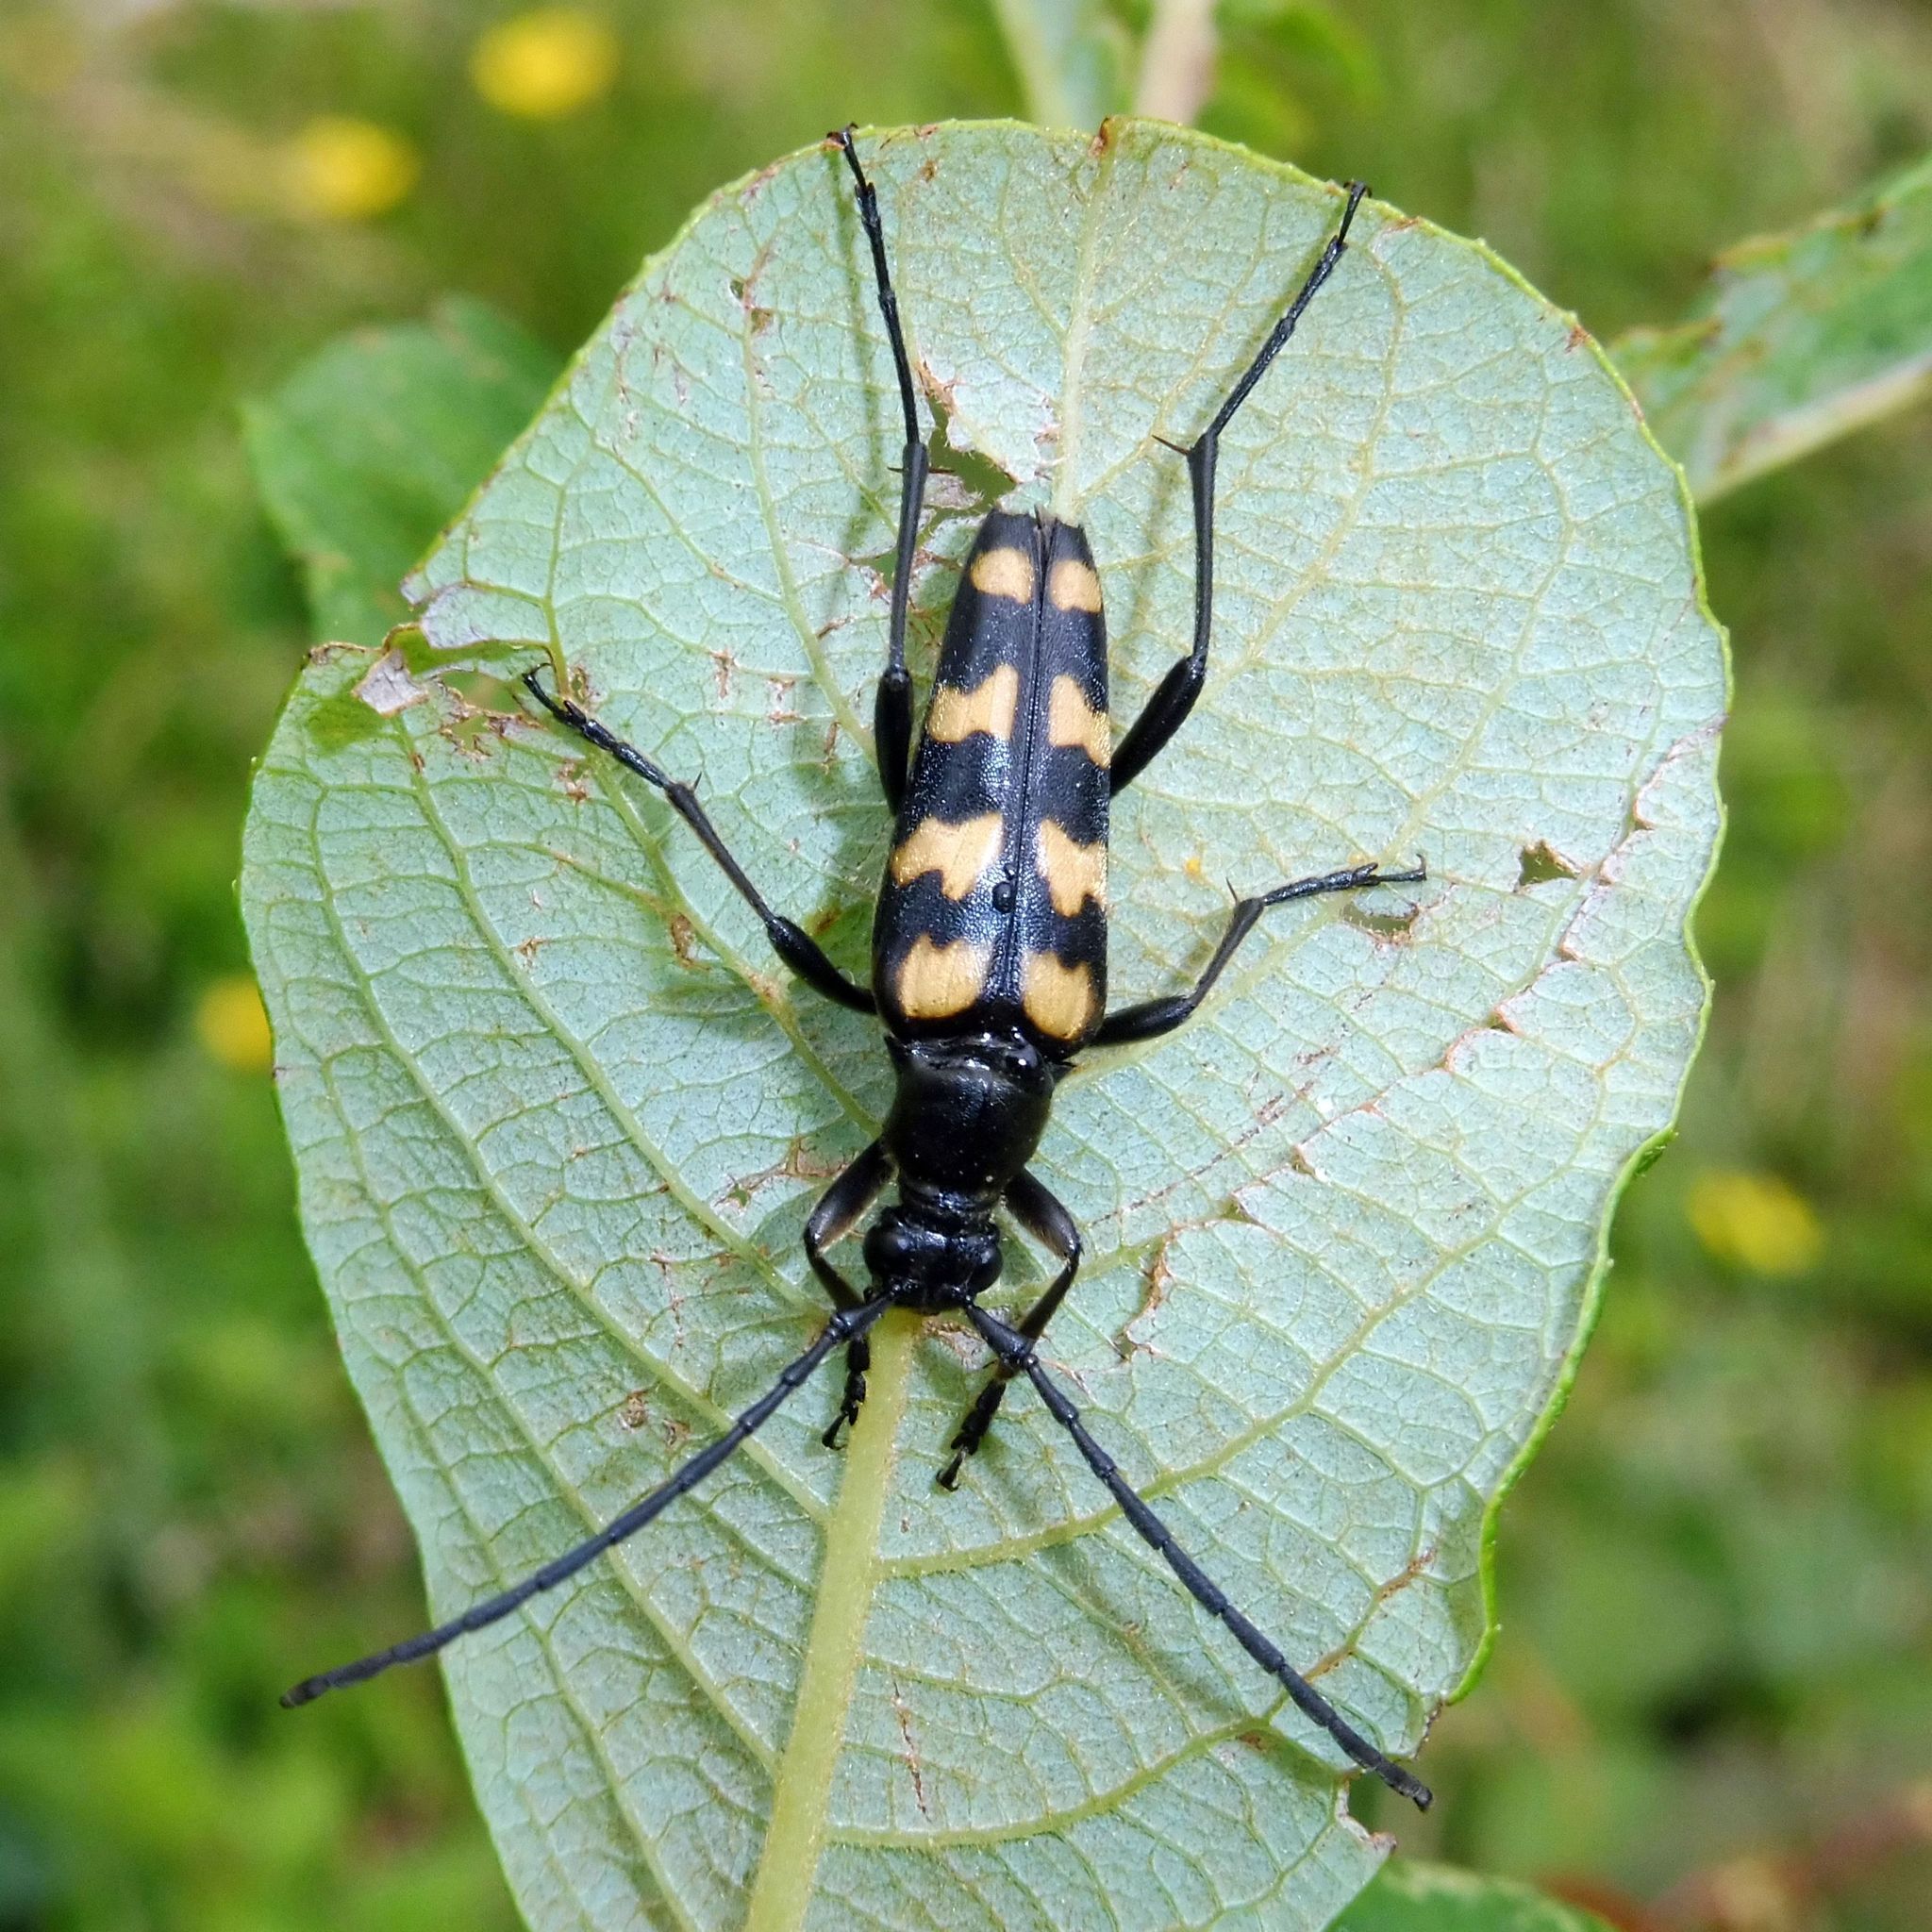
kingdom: Animalia
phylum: Arthropoda
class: Insecta
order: Coleoptera
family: Cerambycidae
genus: Leptura
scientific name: Leptura quadrifasciata
